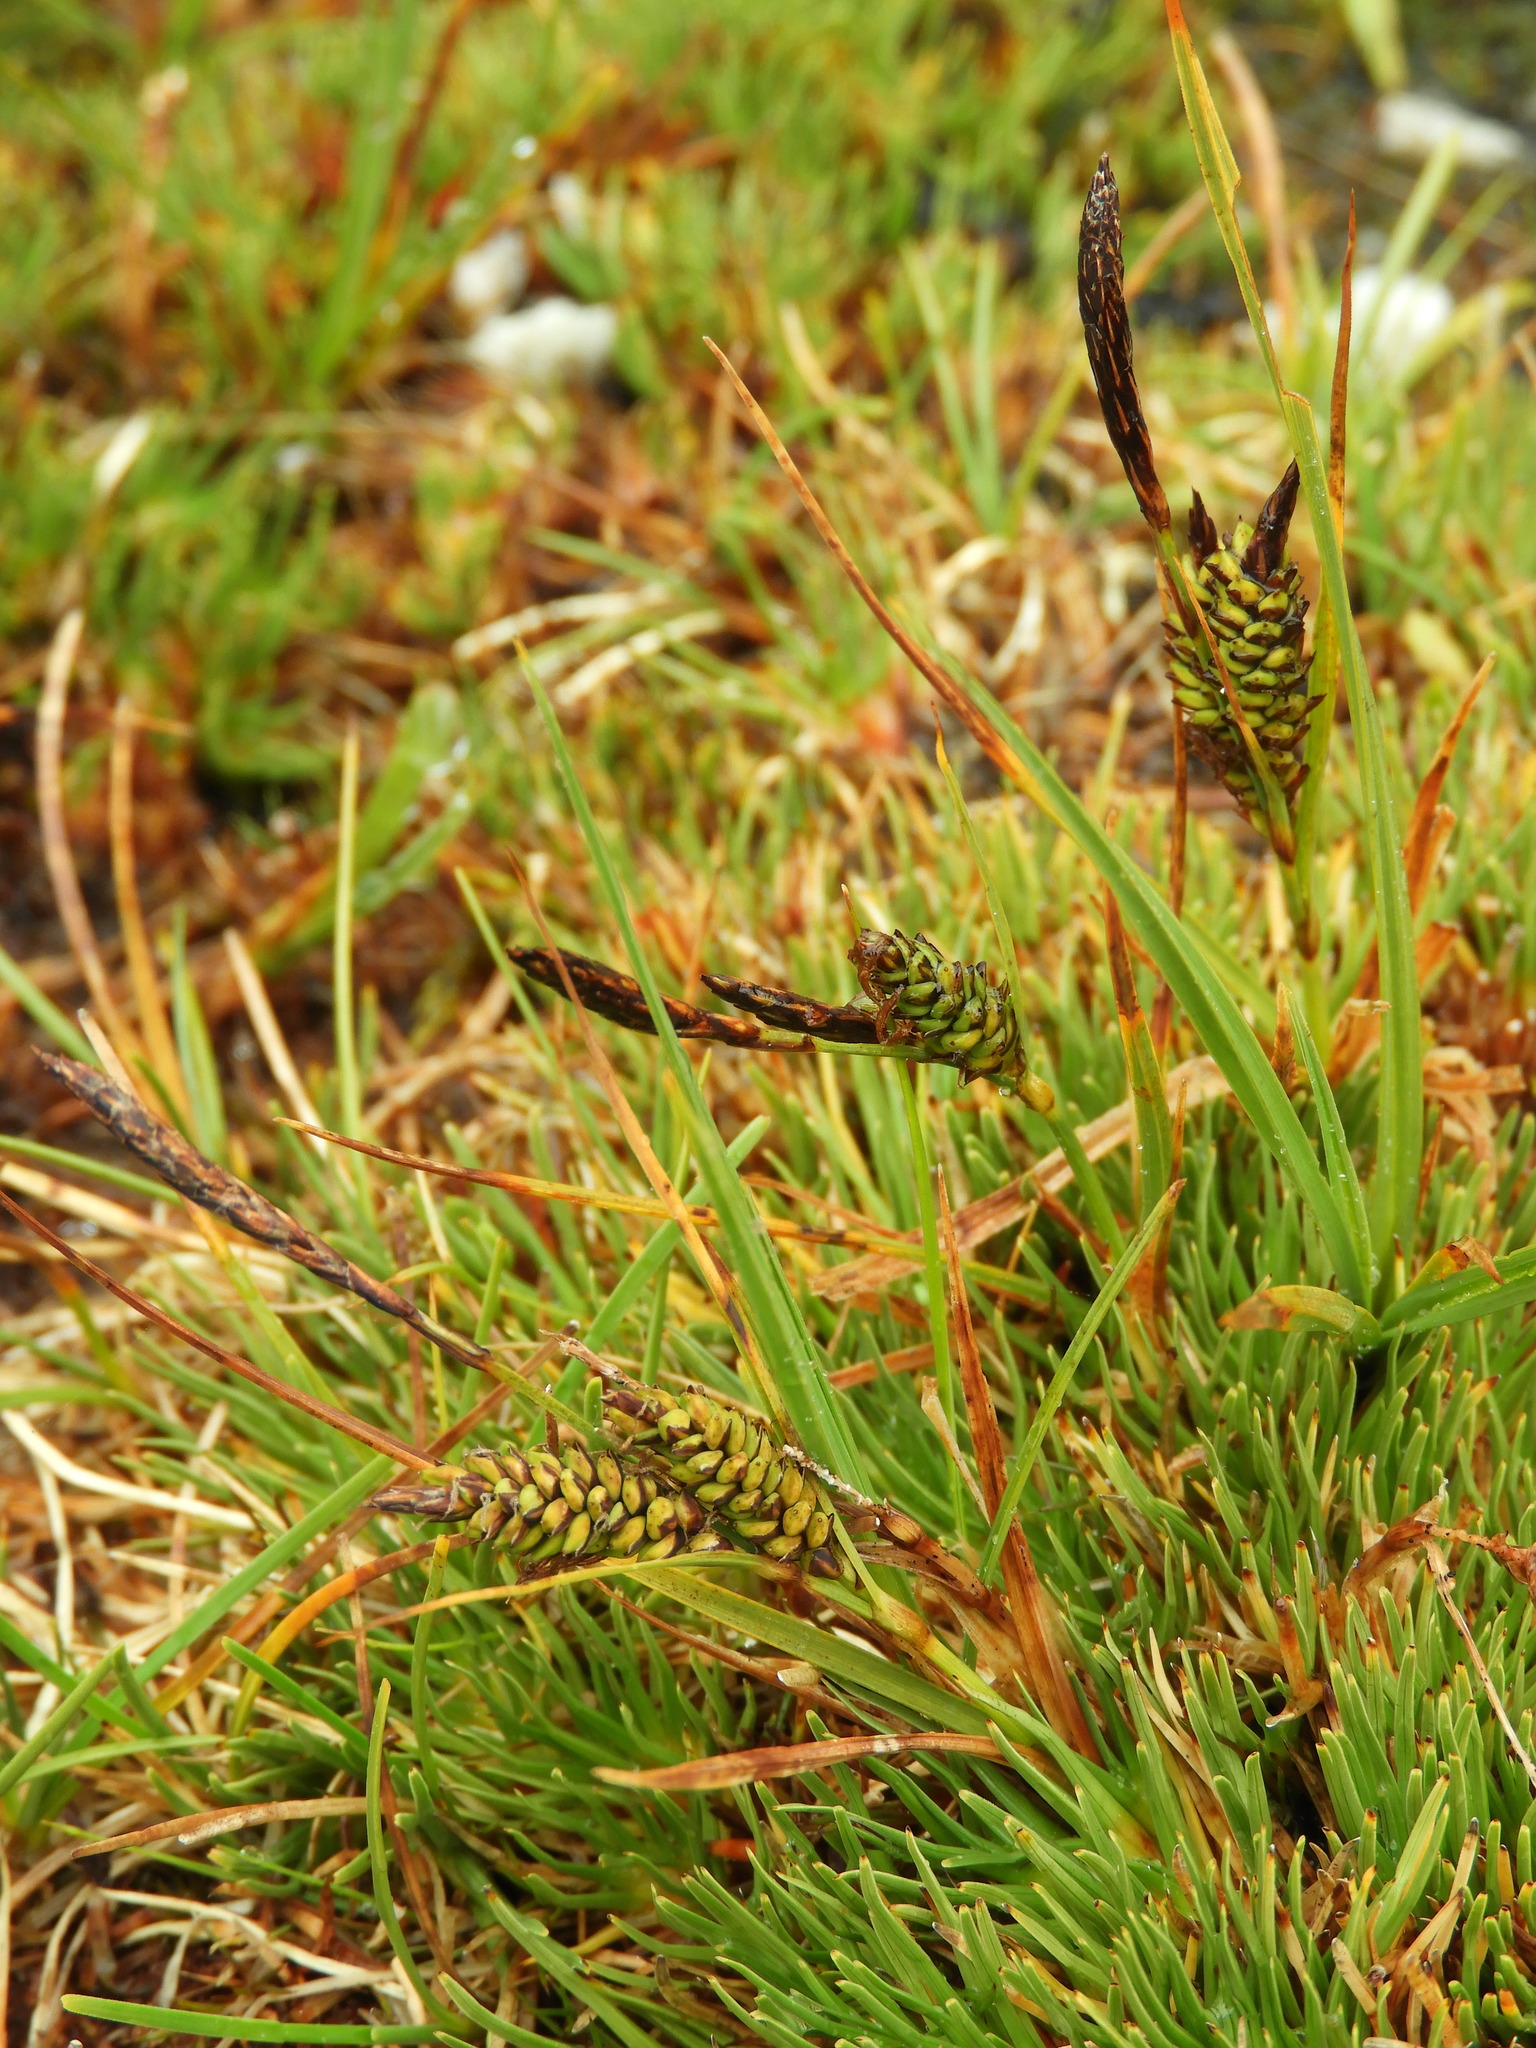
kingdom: Plantae
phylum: Tracheophyta
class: Liliopsida
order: Poales
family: Cyperaceae
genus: Carex
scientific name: Carex gaudichaudiana
